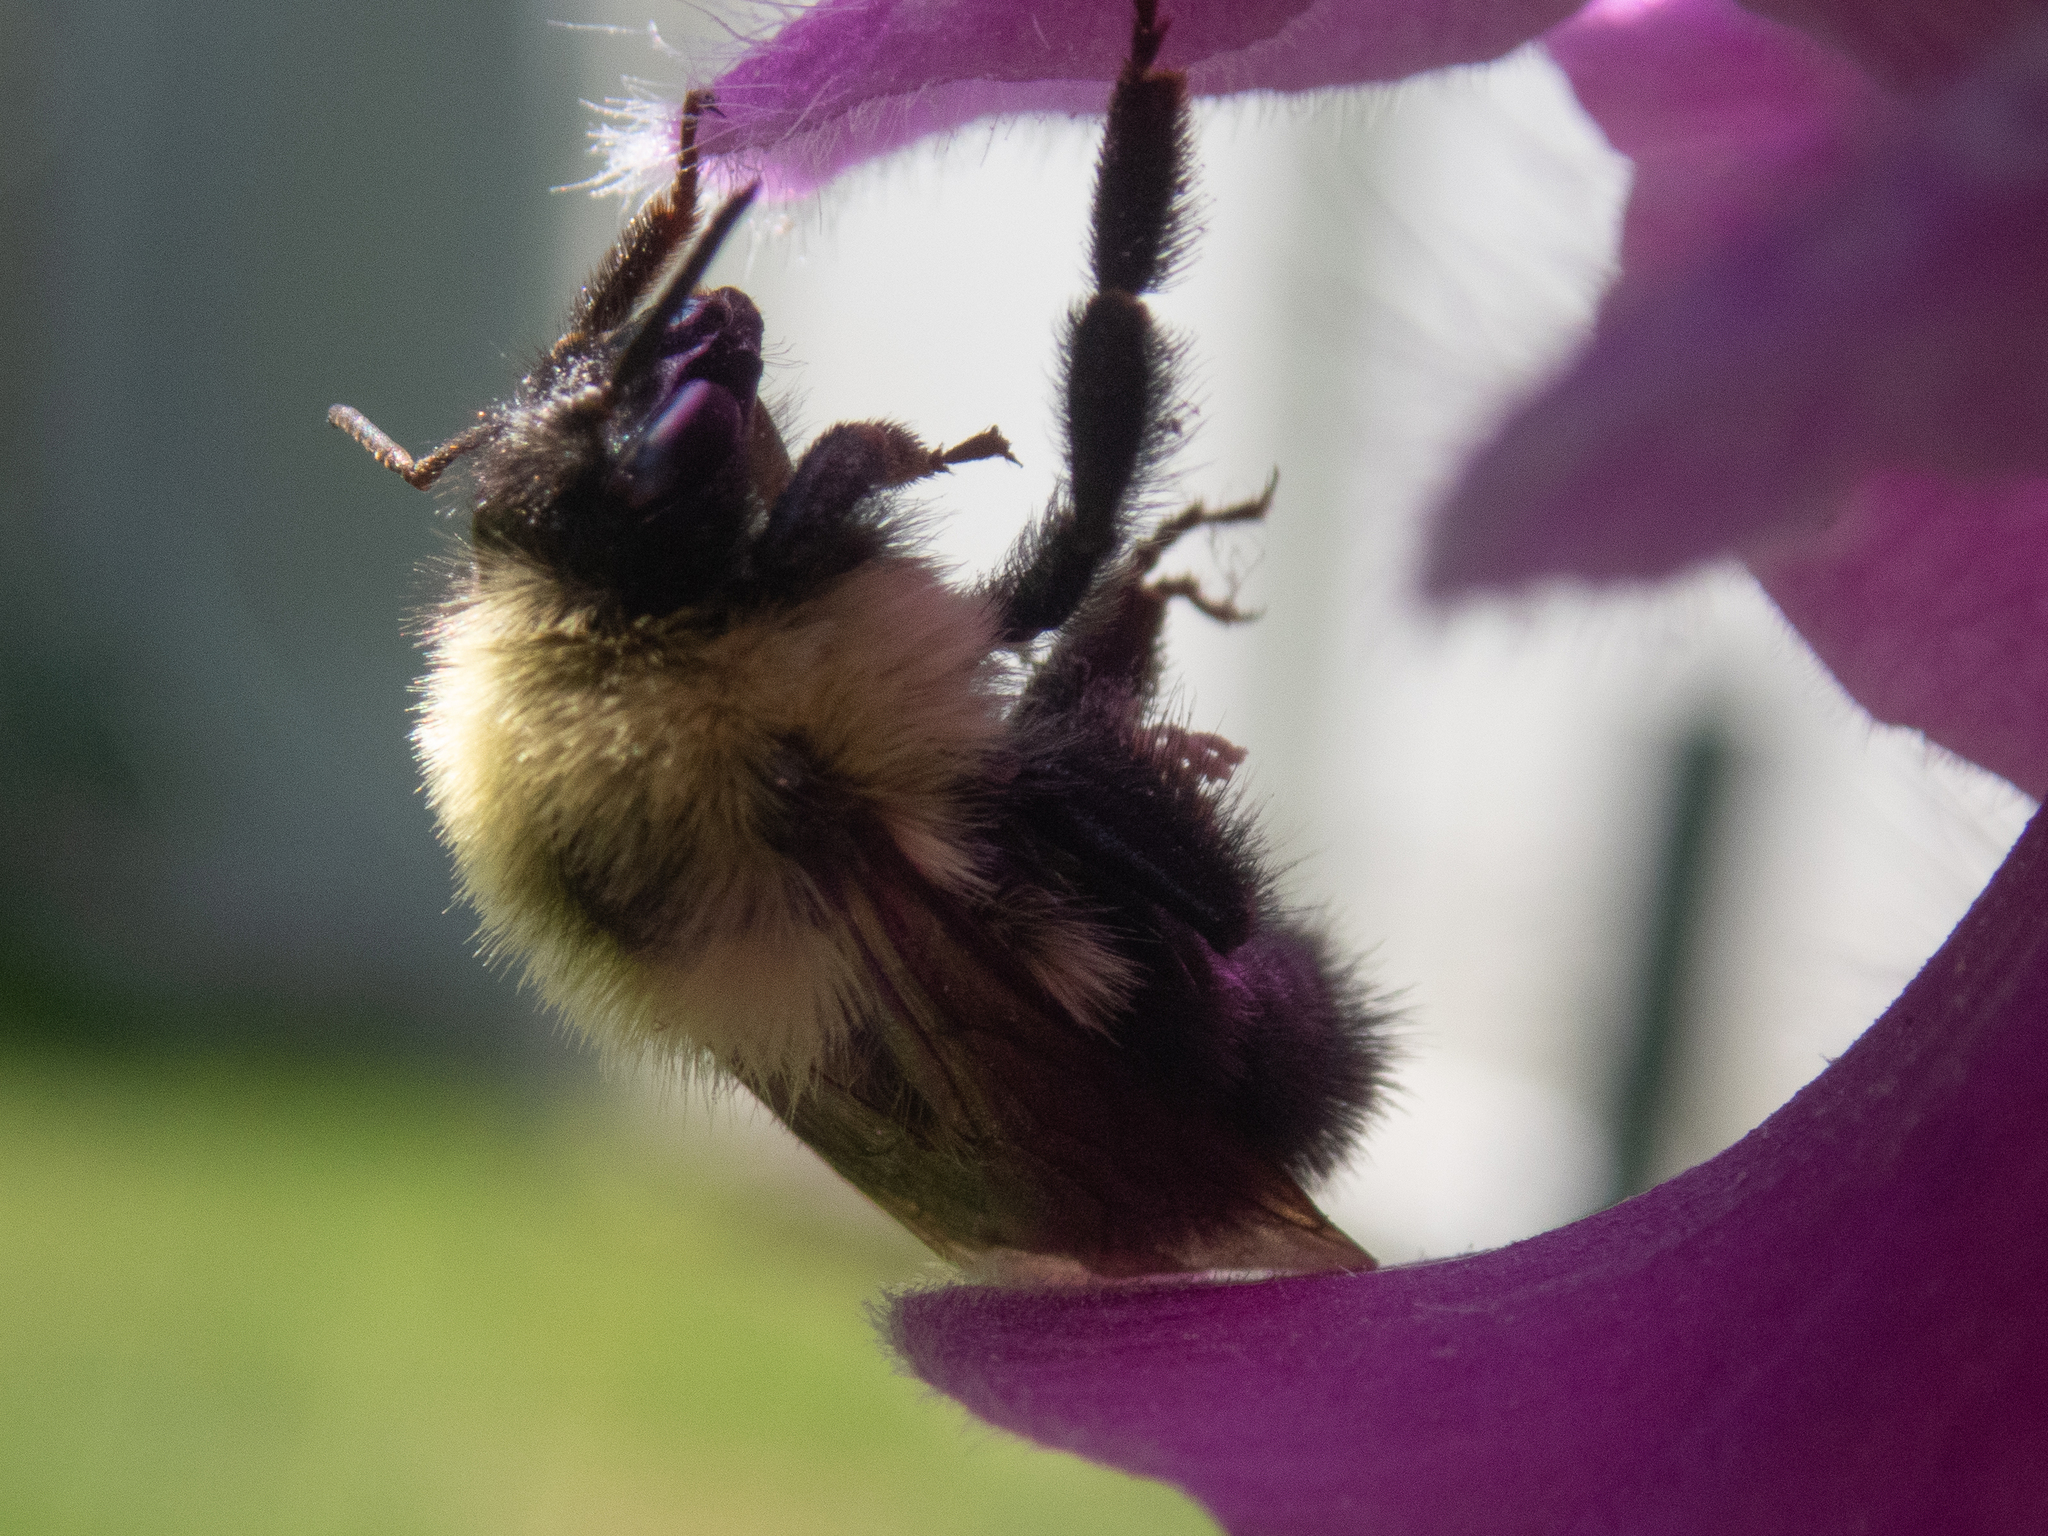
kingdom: Animalia
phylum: Arthropoda
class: Insecta
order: Hymenoptera
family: Apidae
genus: Bombus
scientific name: Bombus bimaculatus
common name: Two-spotted bumble bee
